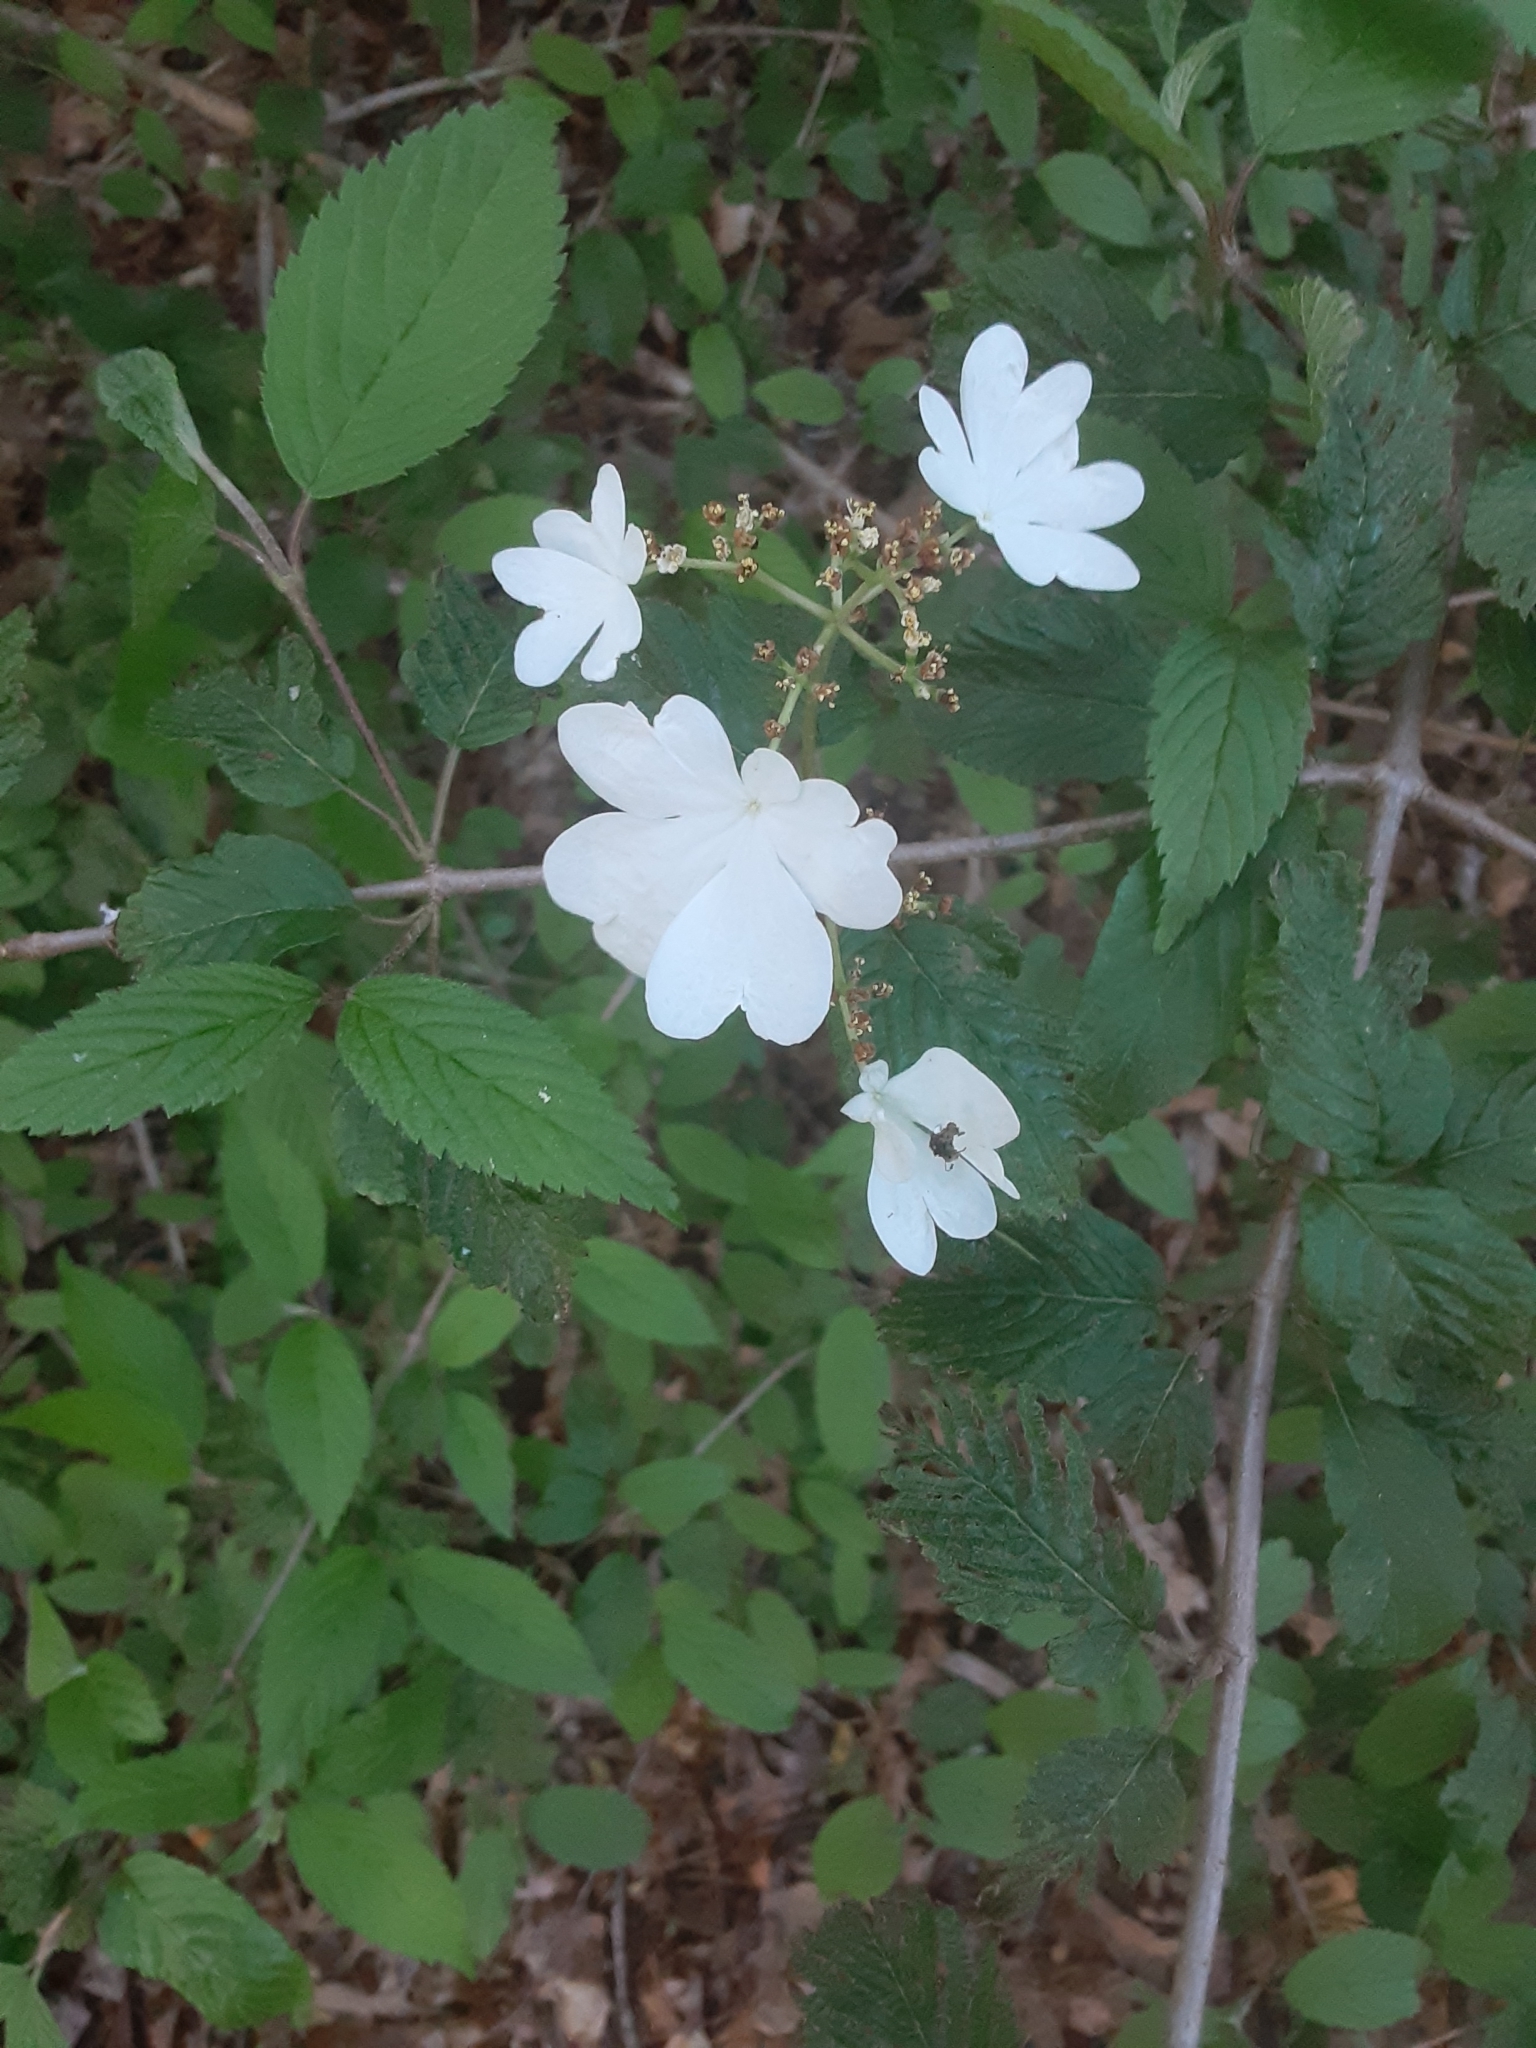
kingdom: Plantae
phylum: Tracheophyta
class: Magnoliopsida
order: Dipsacales
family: Viburnaceae
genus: Viburnum
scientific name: Viburnum plicatum
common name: Japanese snowball
